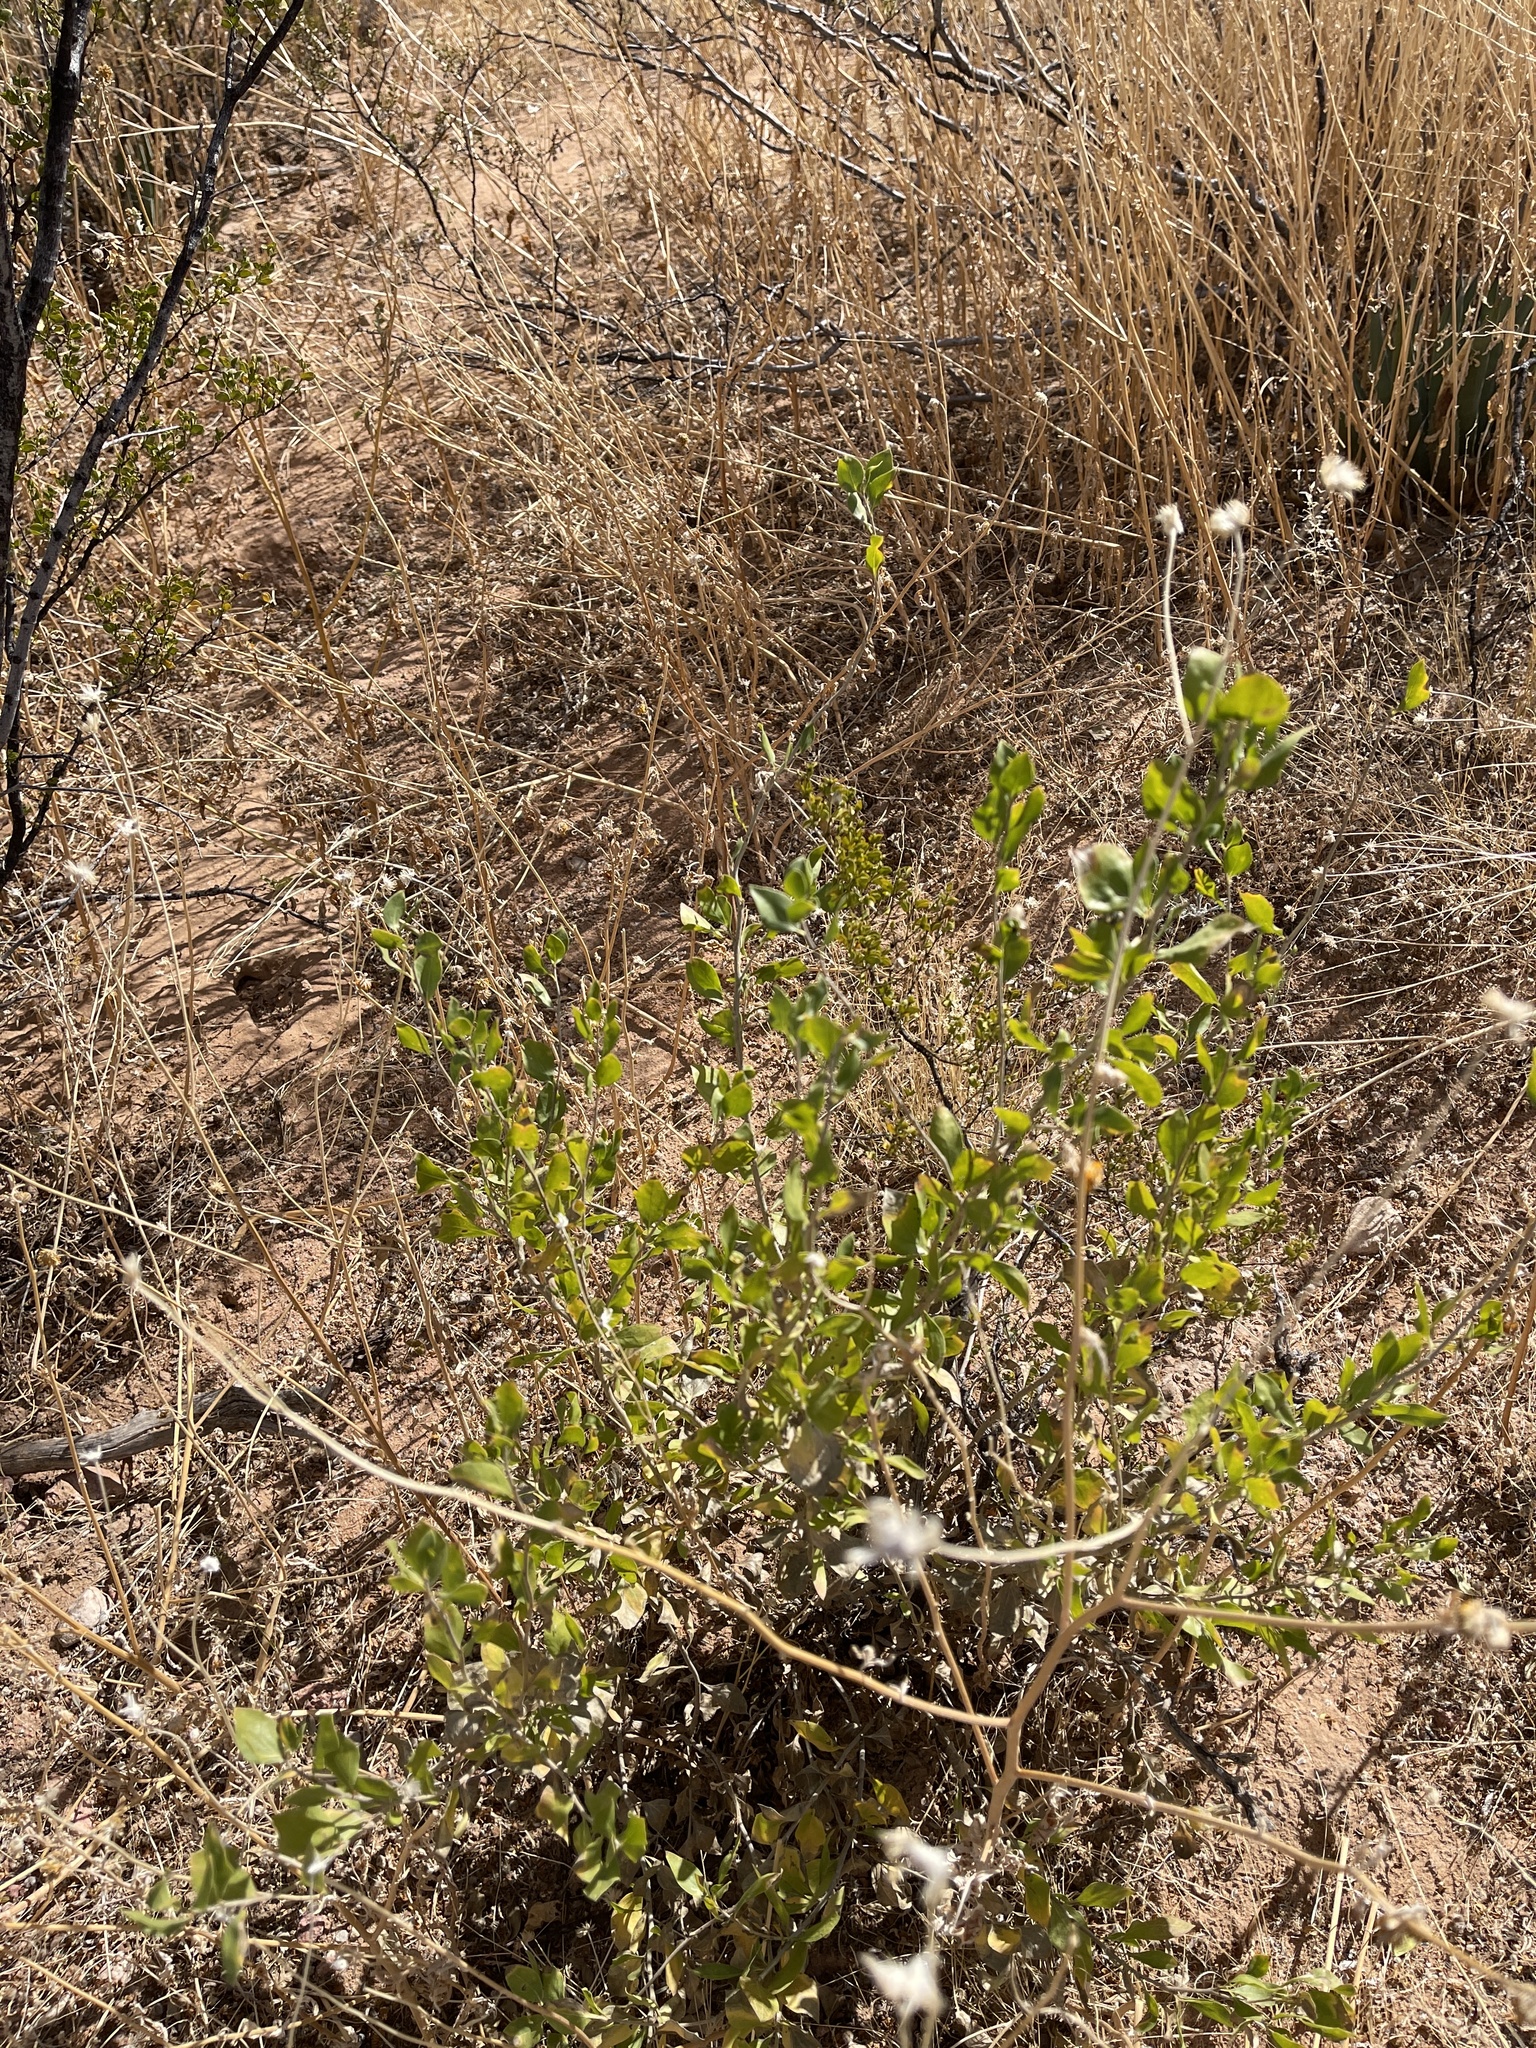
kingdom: Plantae
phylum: Tracheophyta
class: Magnoliopsida
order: Asterales
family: Asteraceae
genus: Flourensia
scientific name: Flourensia cernua
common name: Varnishbush
